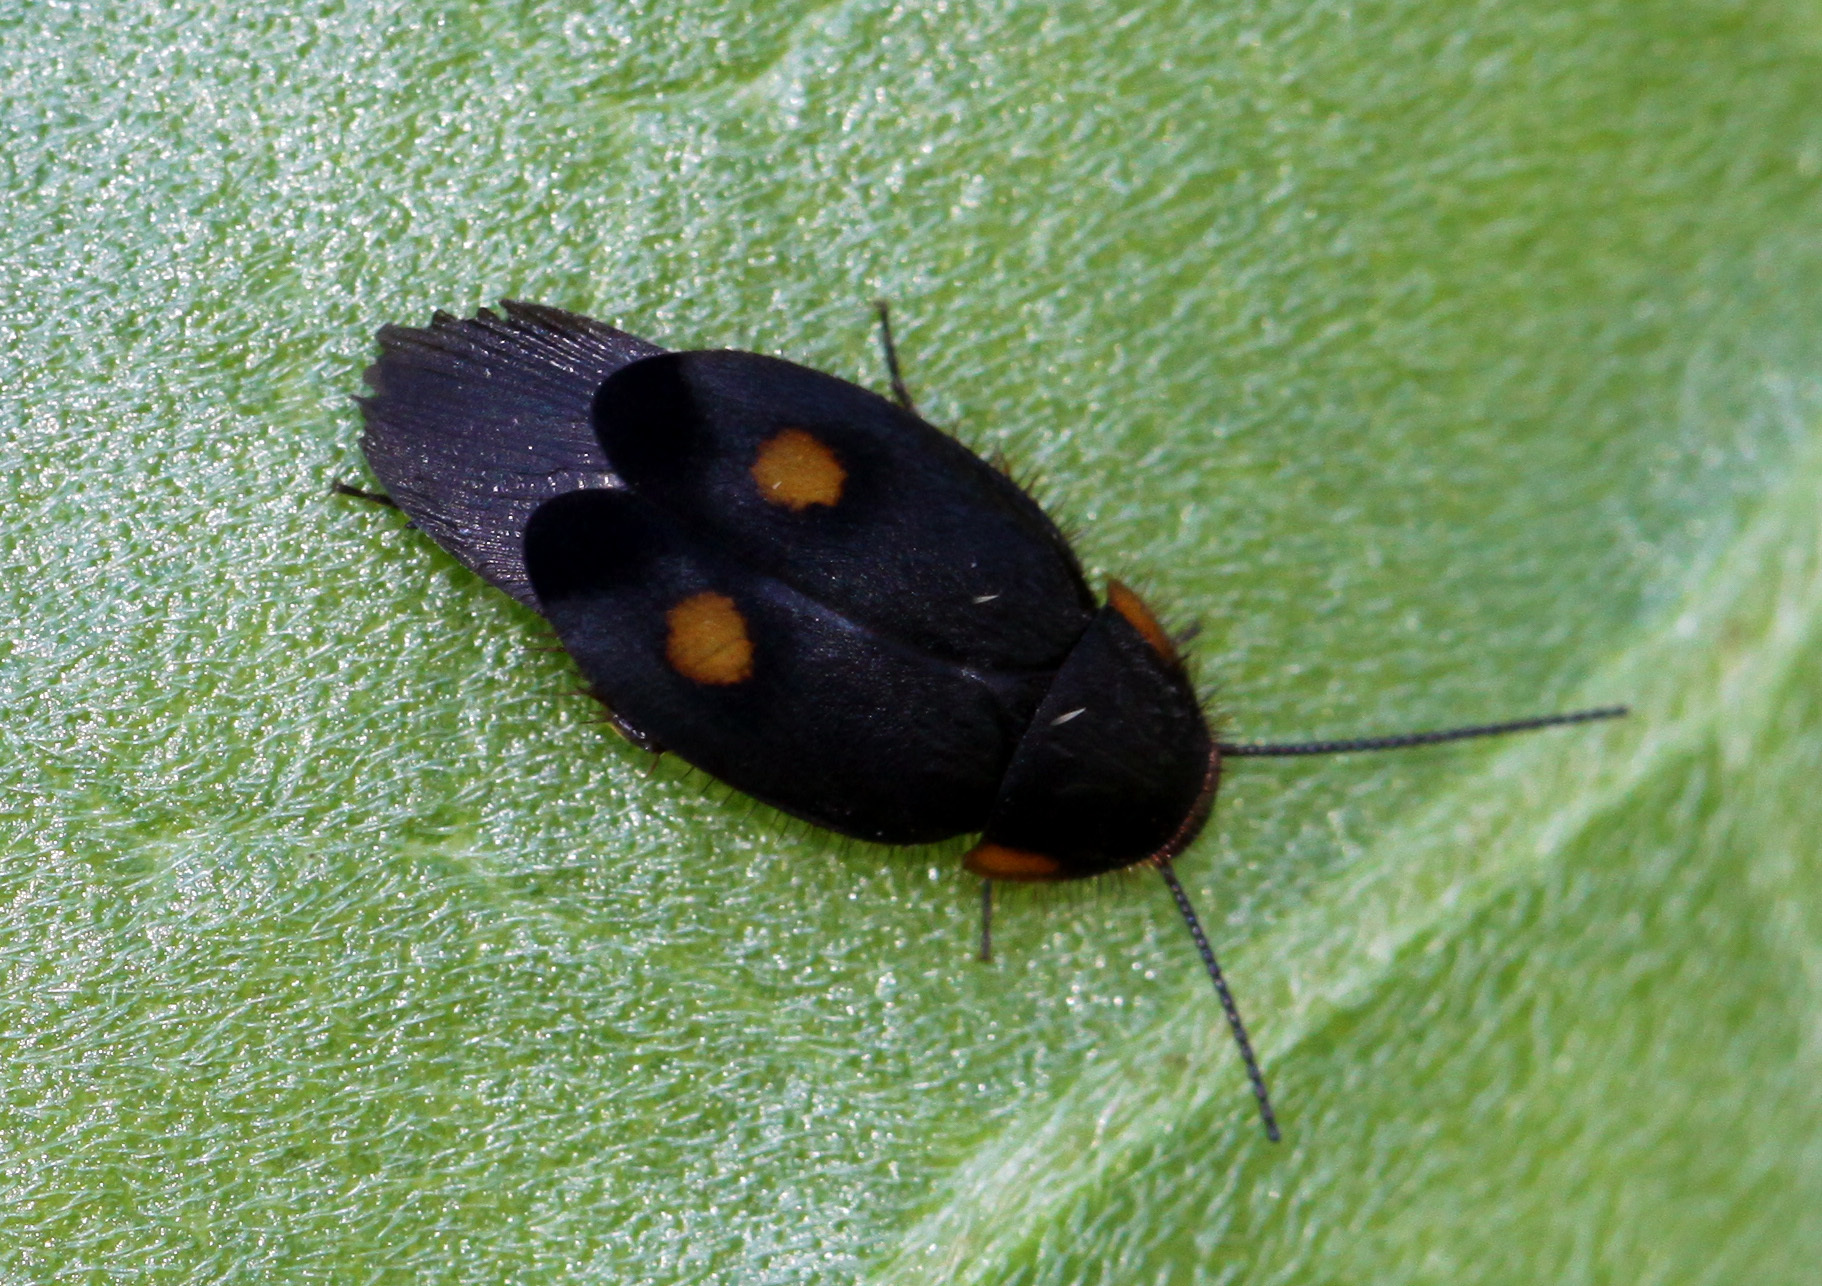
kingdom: Animalia
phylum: Arthropoda
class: Insecta
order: Blattodea
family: Corydiidae
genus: Euthyrrhapha
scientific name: Euthyrrhapha pacifica
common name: Pacific cockroach
